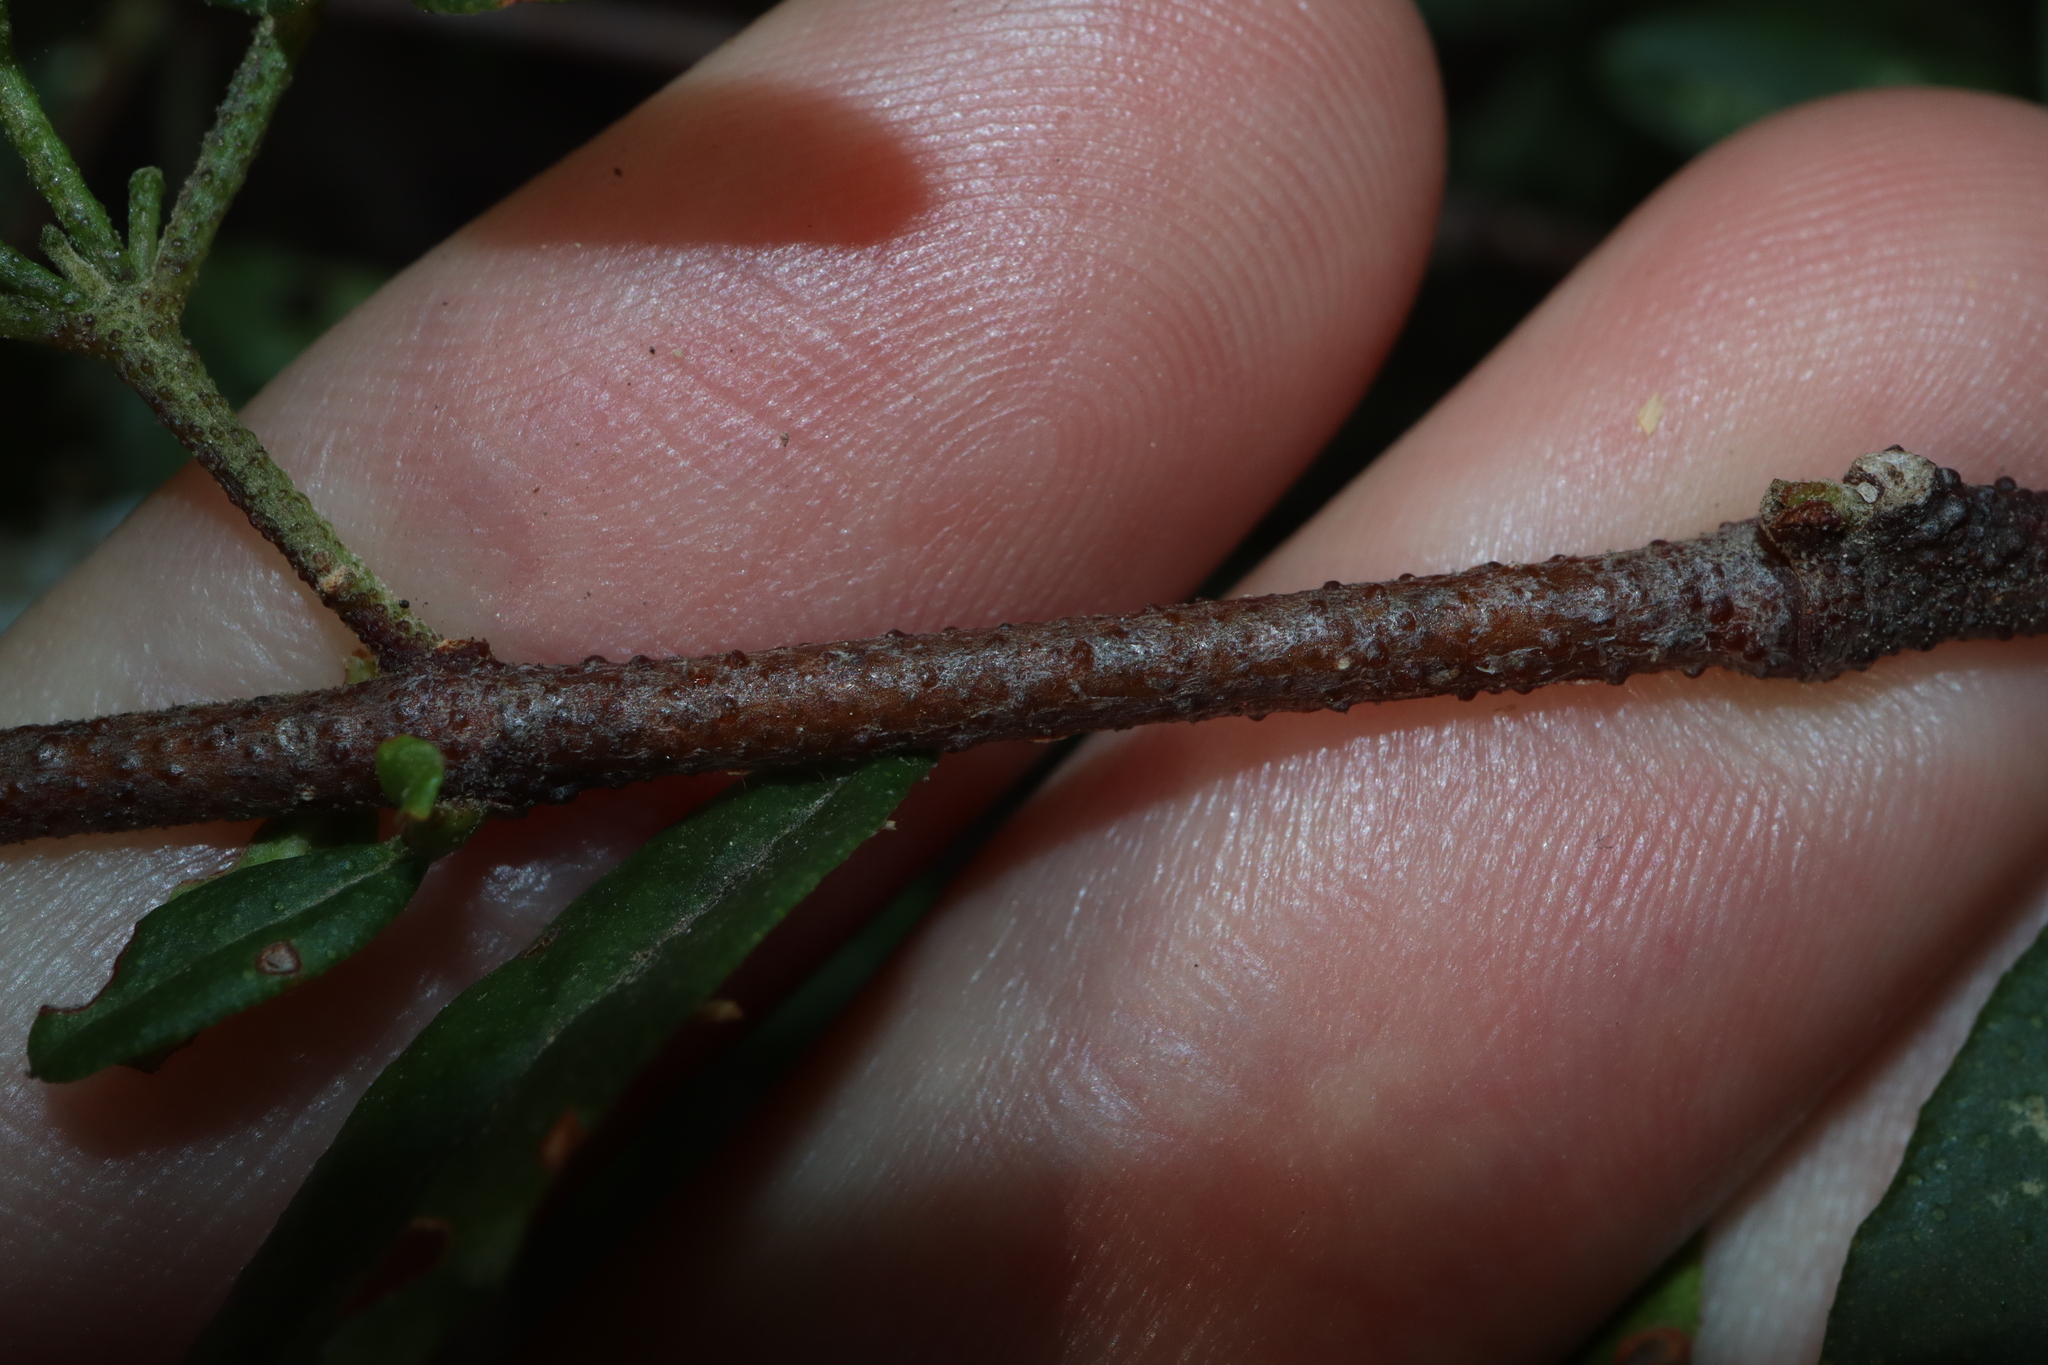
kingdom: Plantae
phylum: Tracheophyta
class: Magnoliopsida
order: Sapindales
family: Rutaceae
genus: Zieria
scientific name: Zieria smithii
